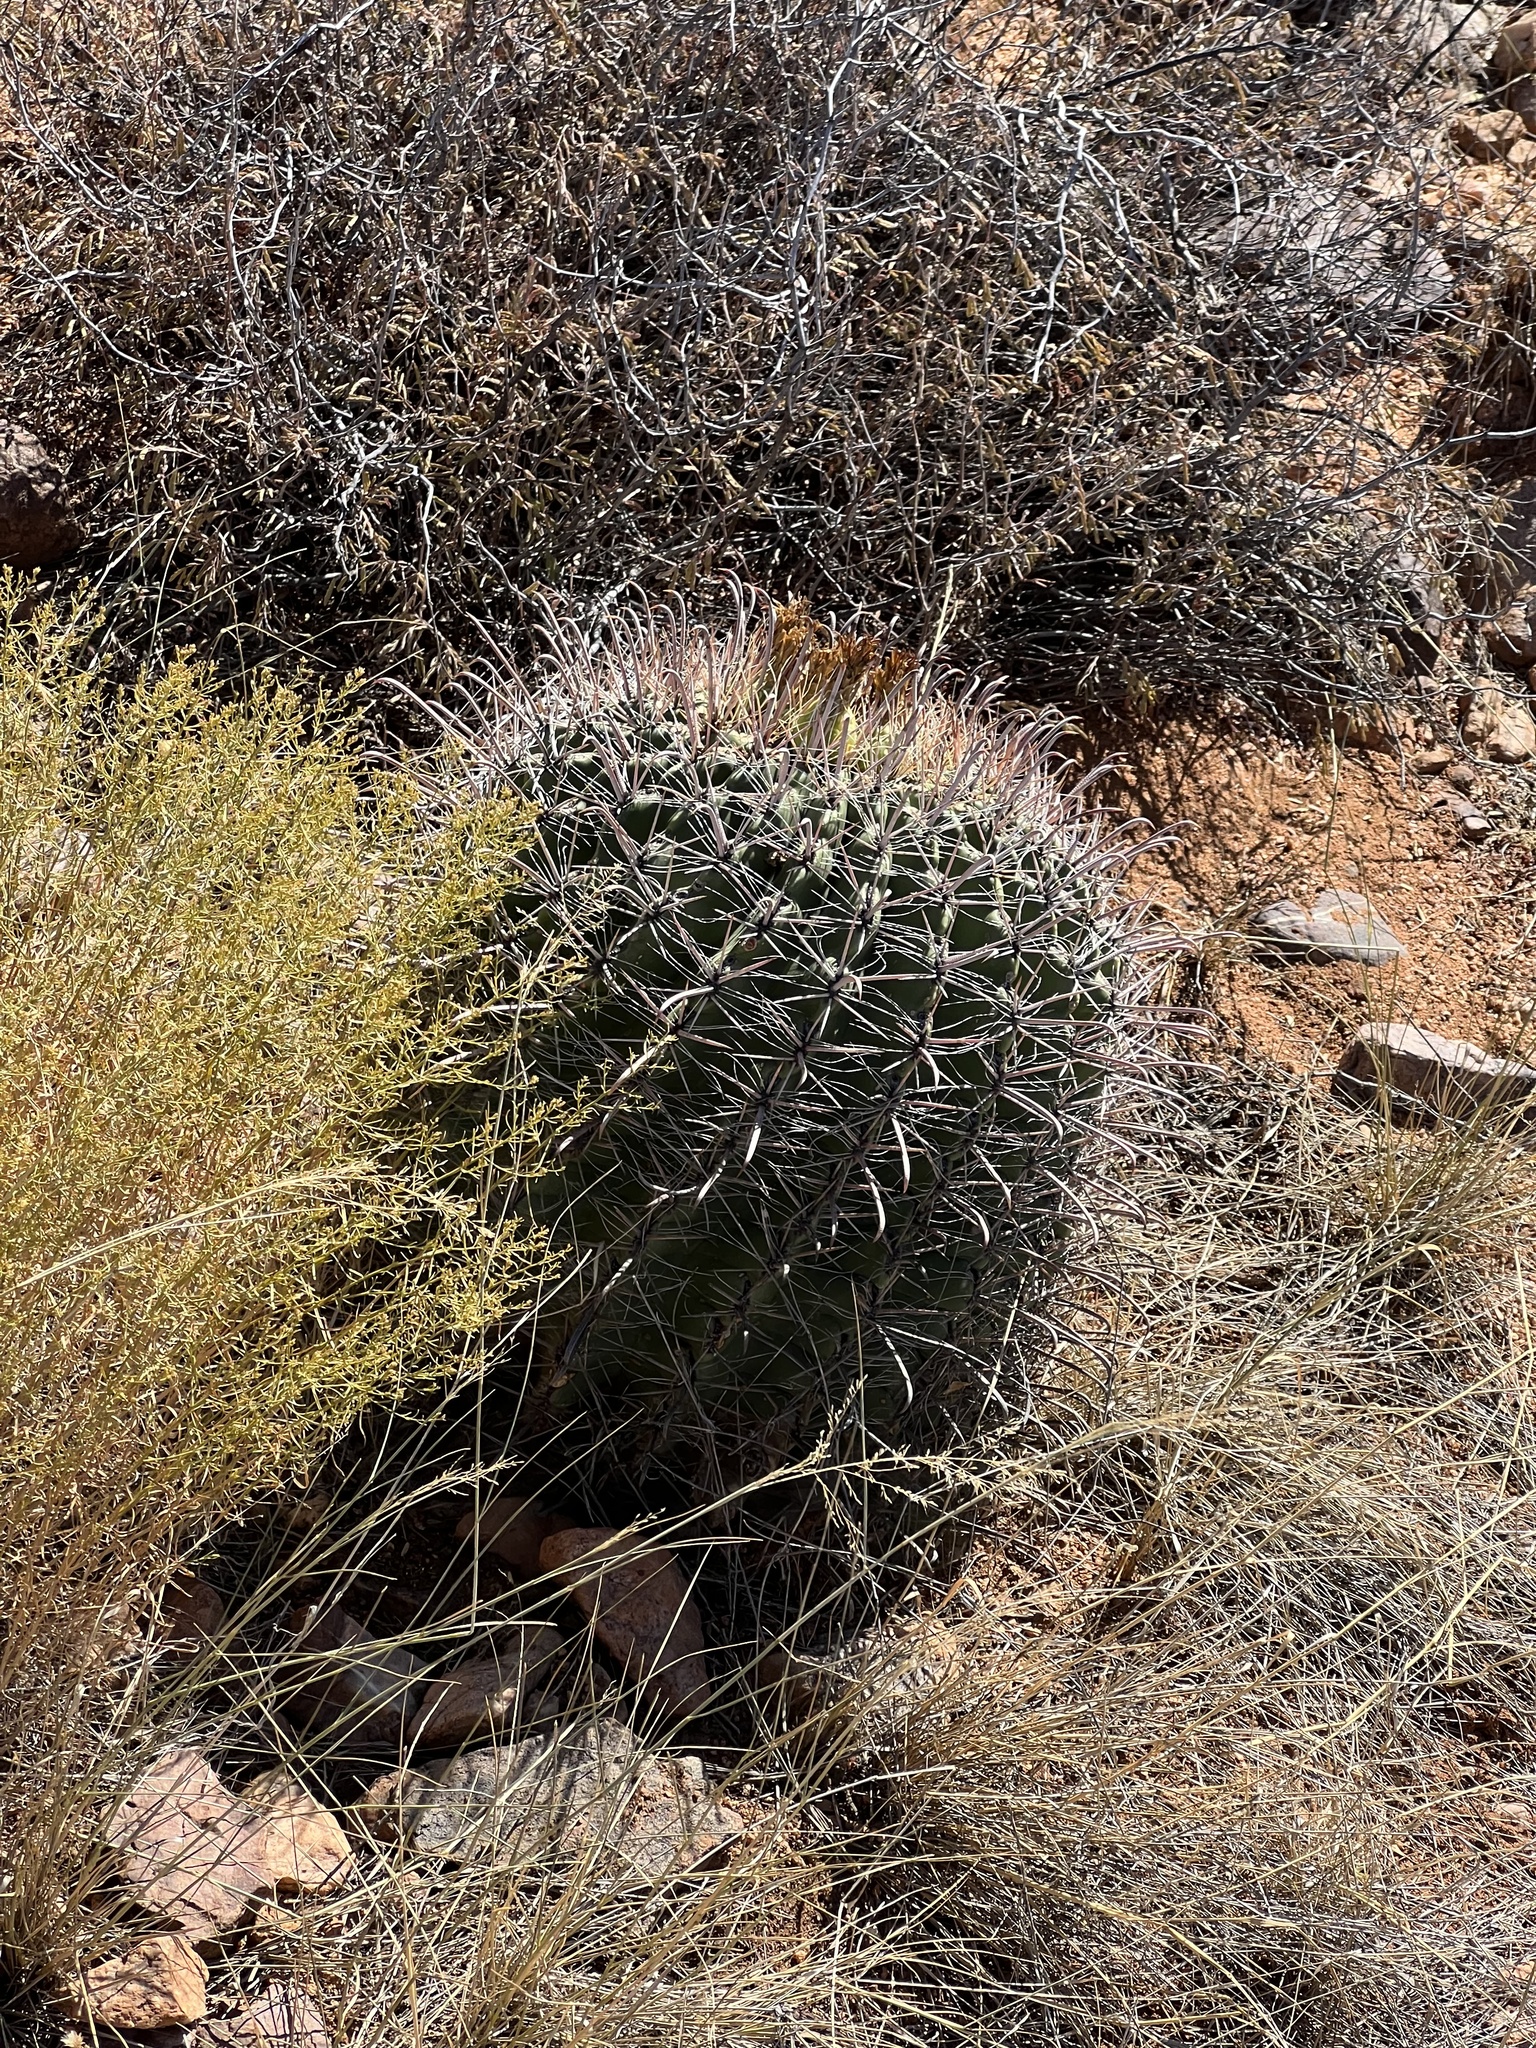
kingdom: Plantae
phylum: Tracheophyta
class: Magnoliopsida
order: Caryophyllales
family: Cactaceae
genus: Ferocactus
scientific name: Ferocactus wislizeni
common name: Candy barrel cactus
